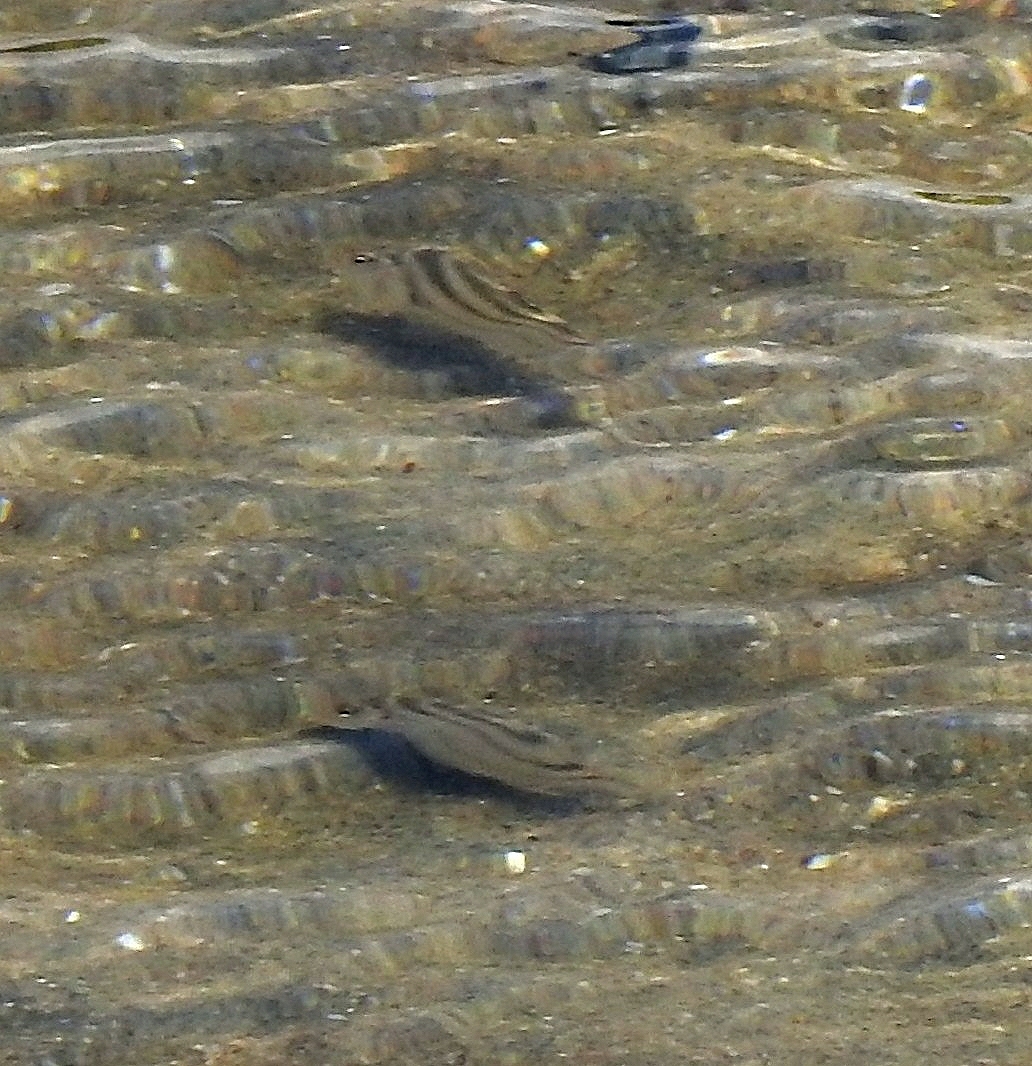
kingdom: Animalia
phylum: Chordata
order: Perciformes
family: Terapontidae
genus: Terapon
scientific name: Terapon jarbua
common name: Jarbua terapon
